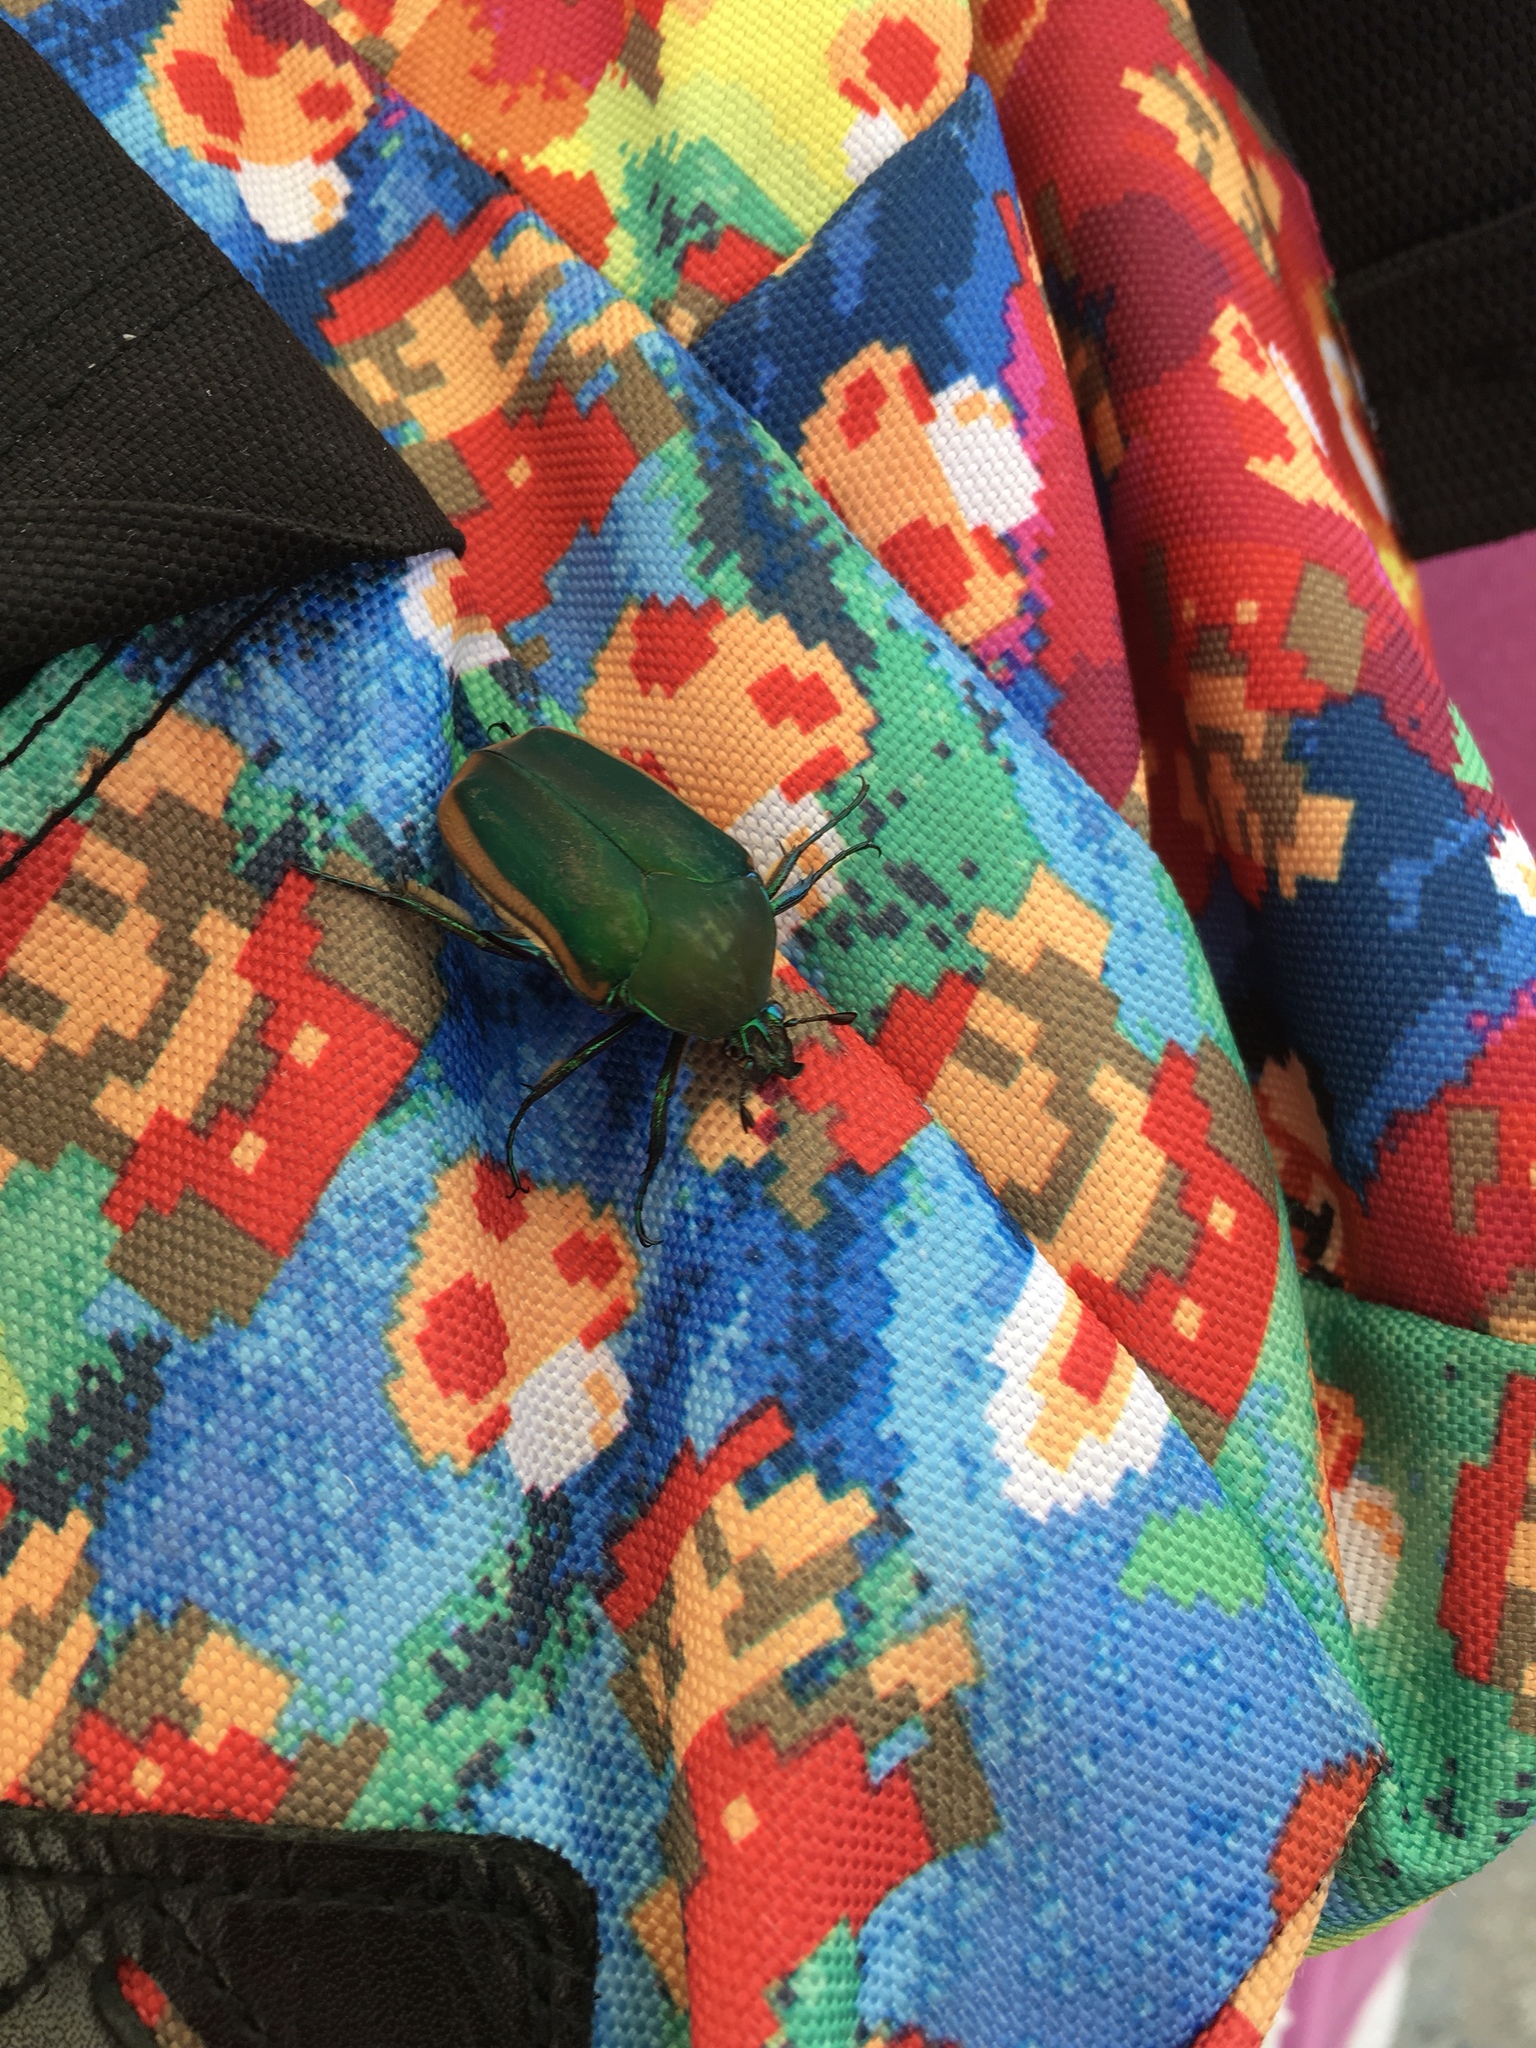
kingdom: Animalia
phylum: Arthropoda
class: Insecta
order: Coleoptera
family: Scarabaeidae
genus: Cotinis
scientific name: Cotinis mutabilis
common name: Figeater beetle
